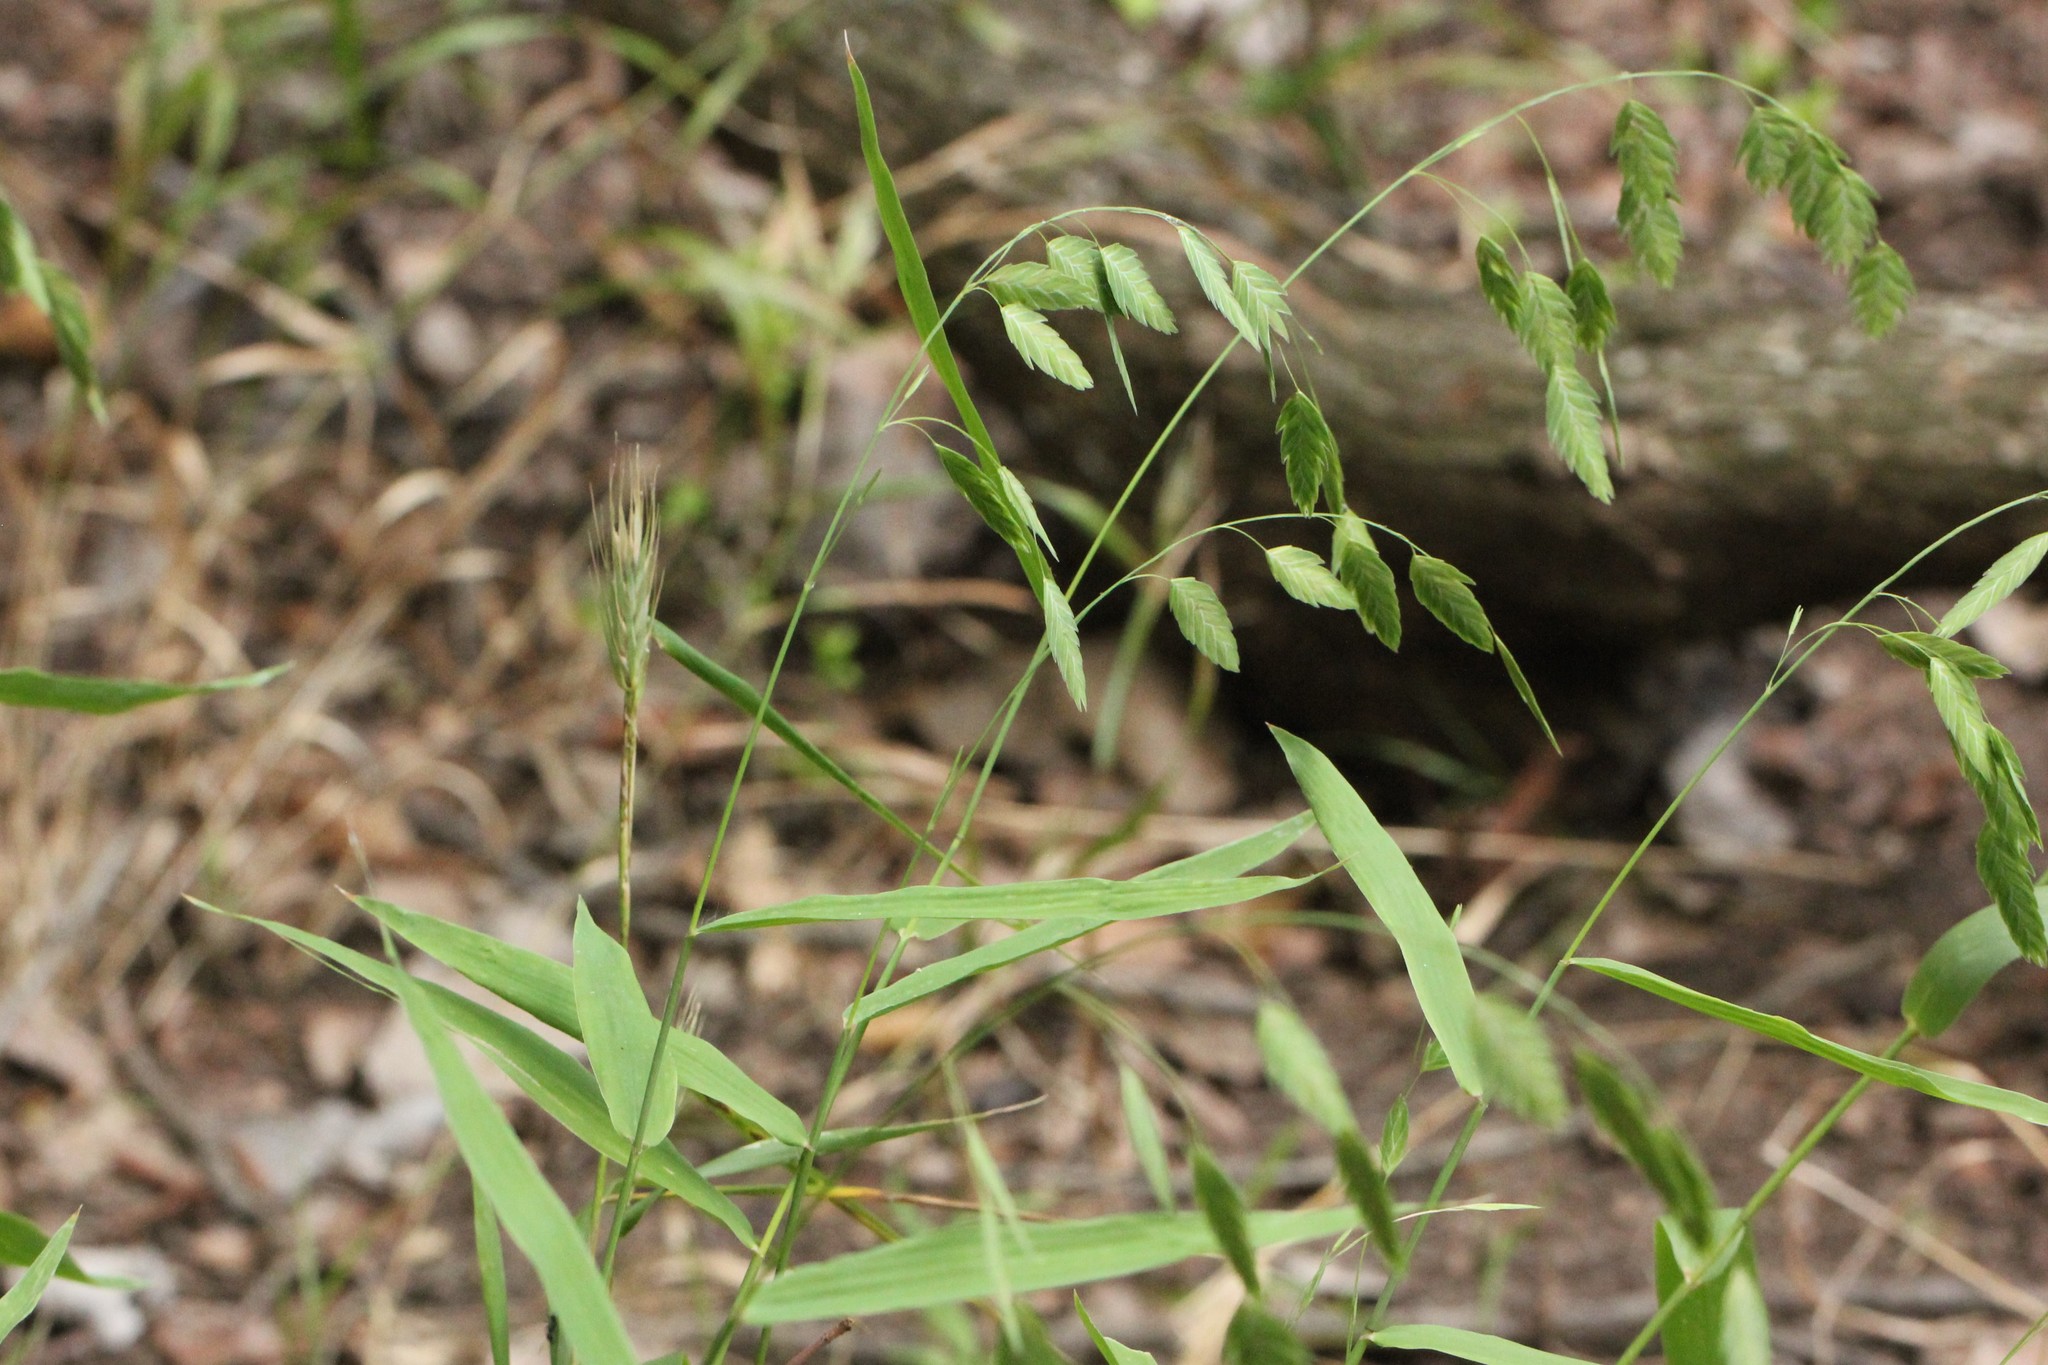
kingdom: Plantae
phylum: Tracheophyta
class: Liliopsida
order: Poales
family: Poaceae
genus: Chasmanthium
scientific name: Chasmanthium latifolium
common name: Broad-leaved chasmanthium
